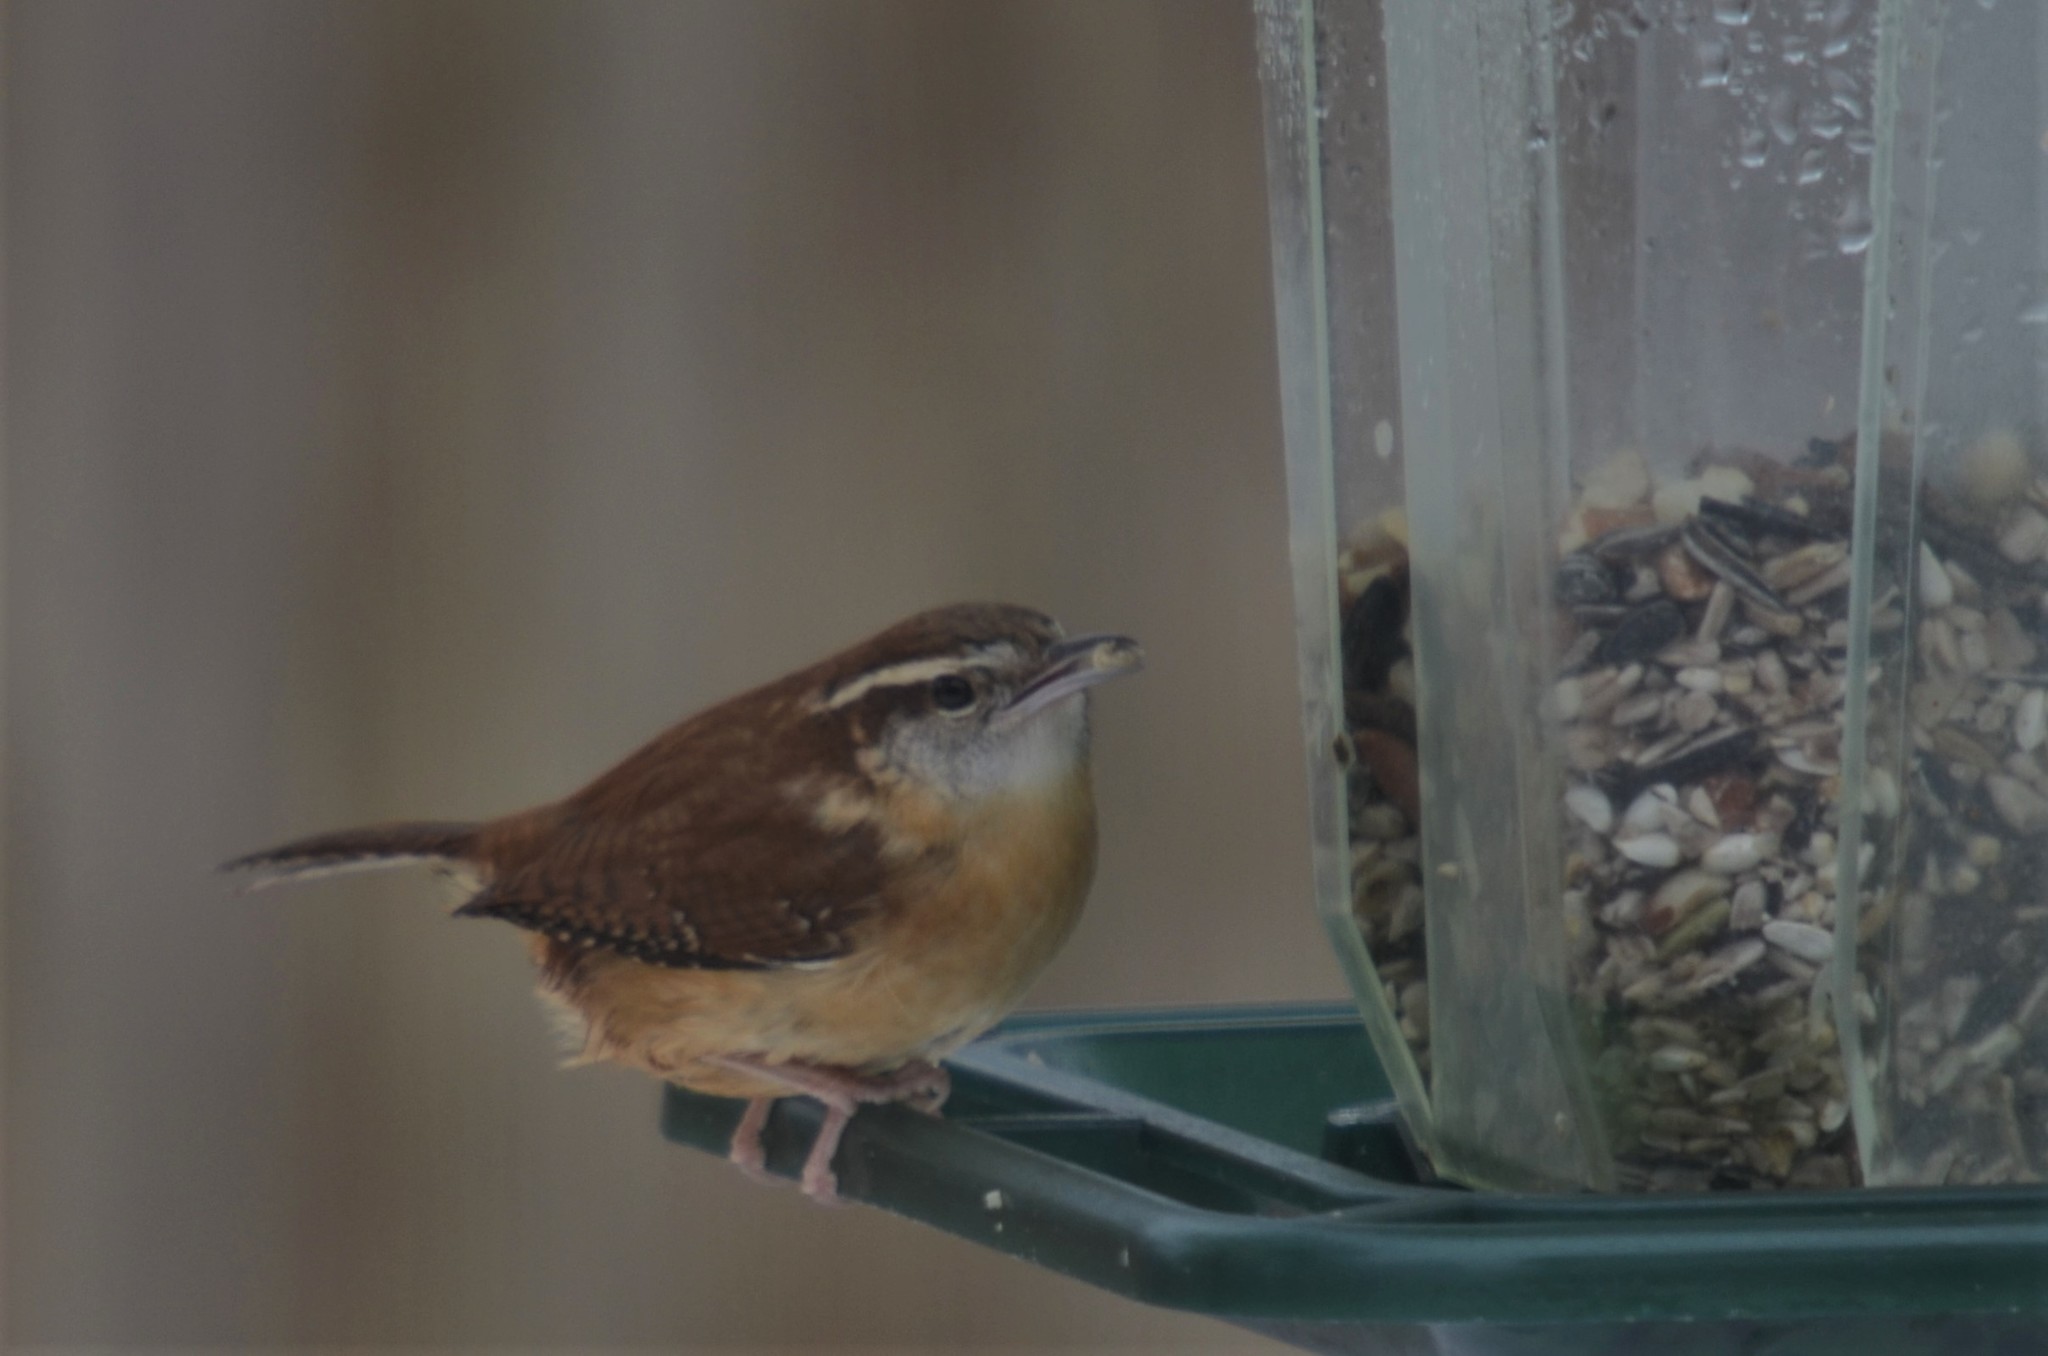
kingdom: Animalia
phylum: Chordata
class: Aves
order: Passeriformes
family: Troglodytidae
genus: Thryothorus
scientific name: Thryothorus ludovicianus
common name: Carolina wren
